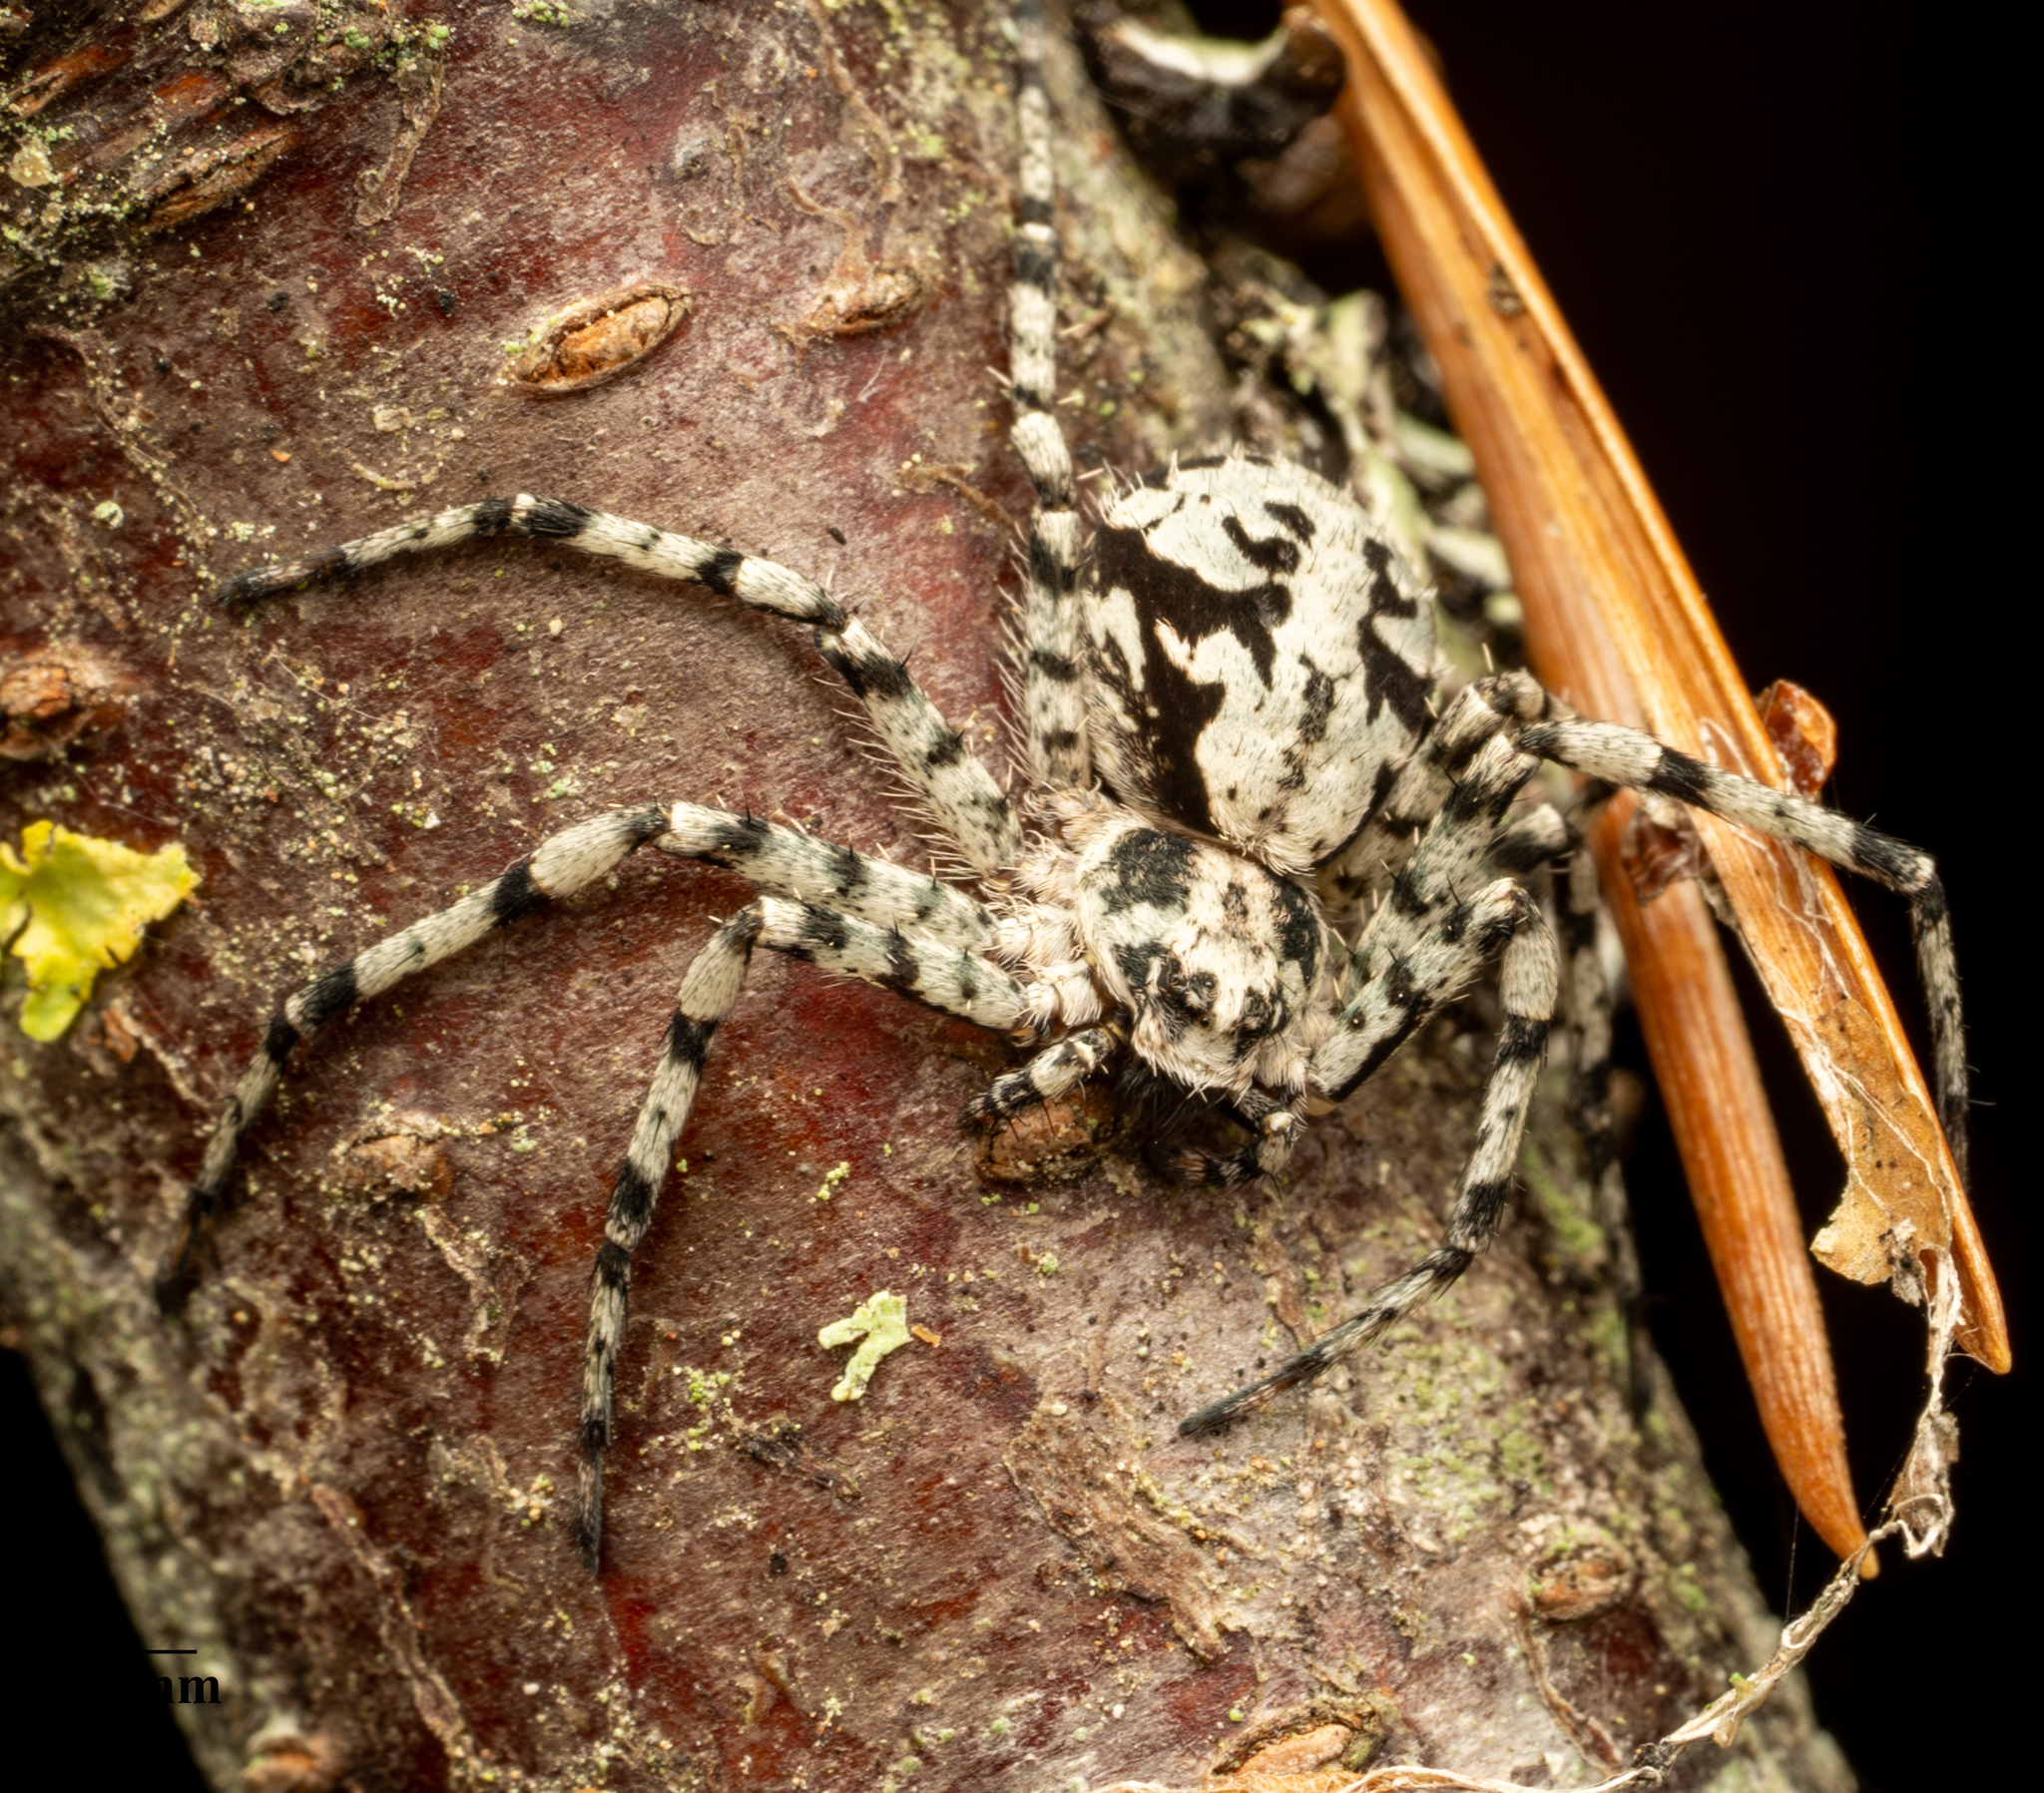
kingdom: Animalia
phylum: Arthropoda
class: Arachnida
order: Araneae
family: Philodromidae
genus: Philodromus
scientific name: Philodromus margaritatus
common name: Lichen running-spider
